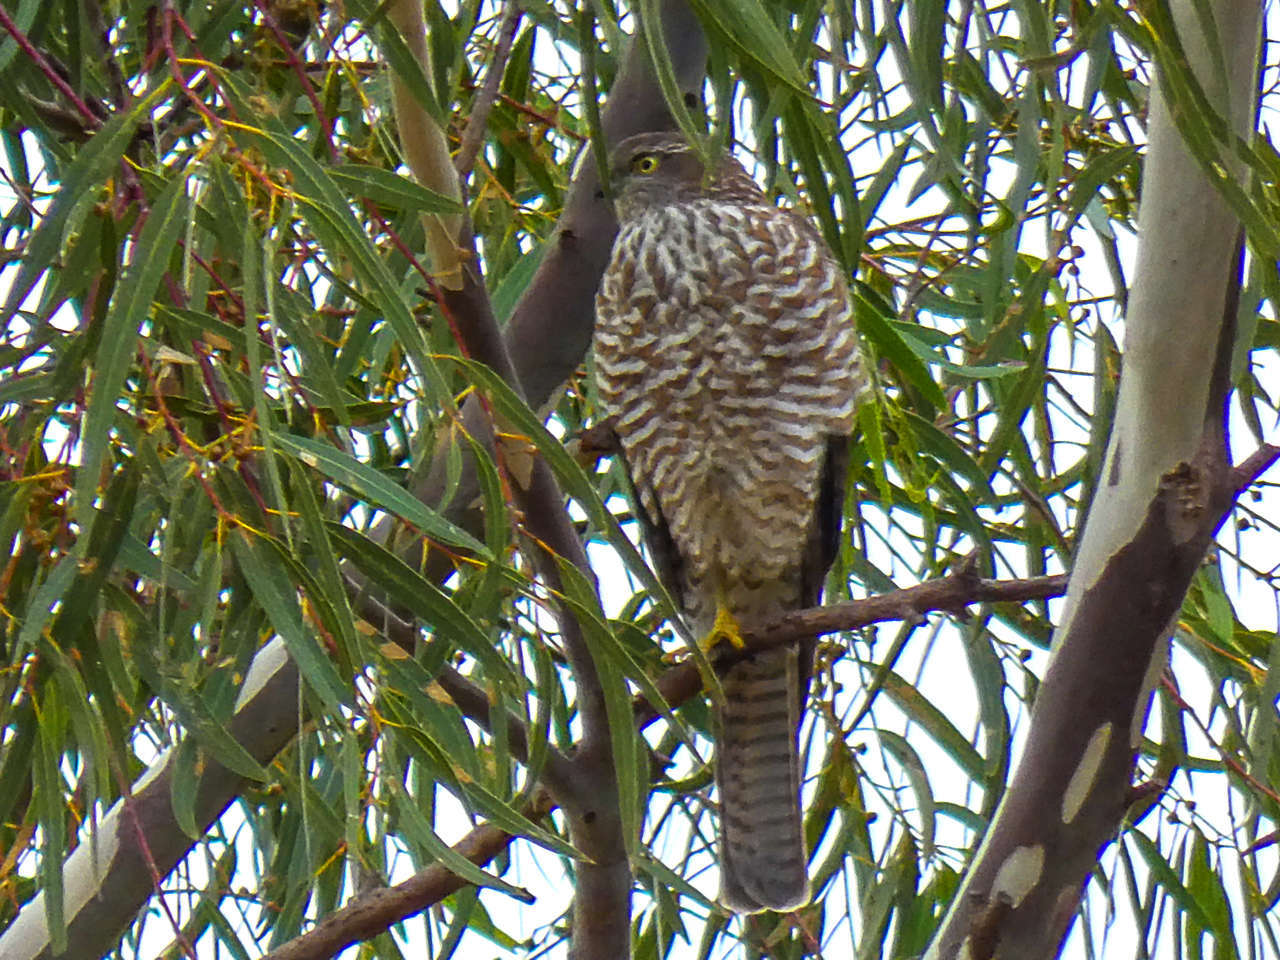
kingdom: Animalia
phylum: Chordata
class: Aves
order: Accipitriformes
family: Accipitridae
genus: Accipiter
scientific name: Accipiter cirrocephalus
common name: Collared sparrowhawk
